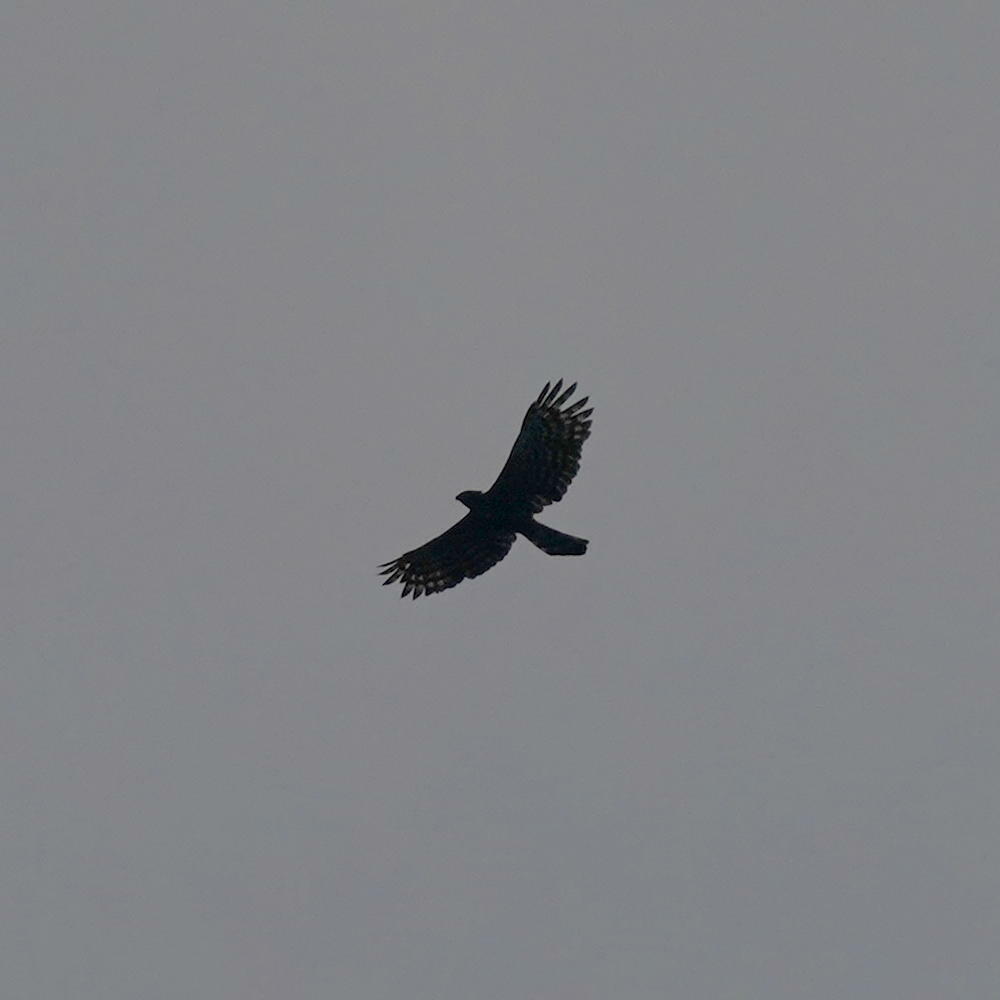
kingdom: Animalia
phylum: Chordata
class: Aves
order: Accipitriformes
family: Accipitridae
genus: Spizaetus
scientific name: Spizaetus tyrannus
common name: Black hawk-eagle
